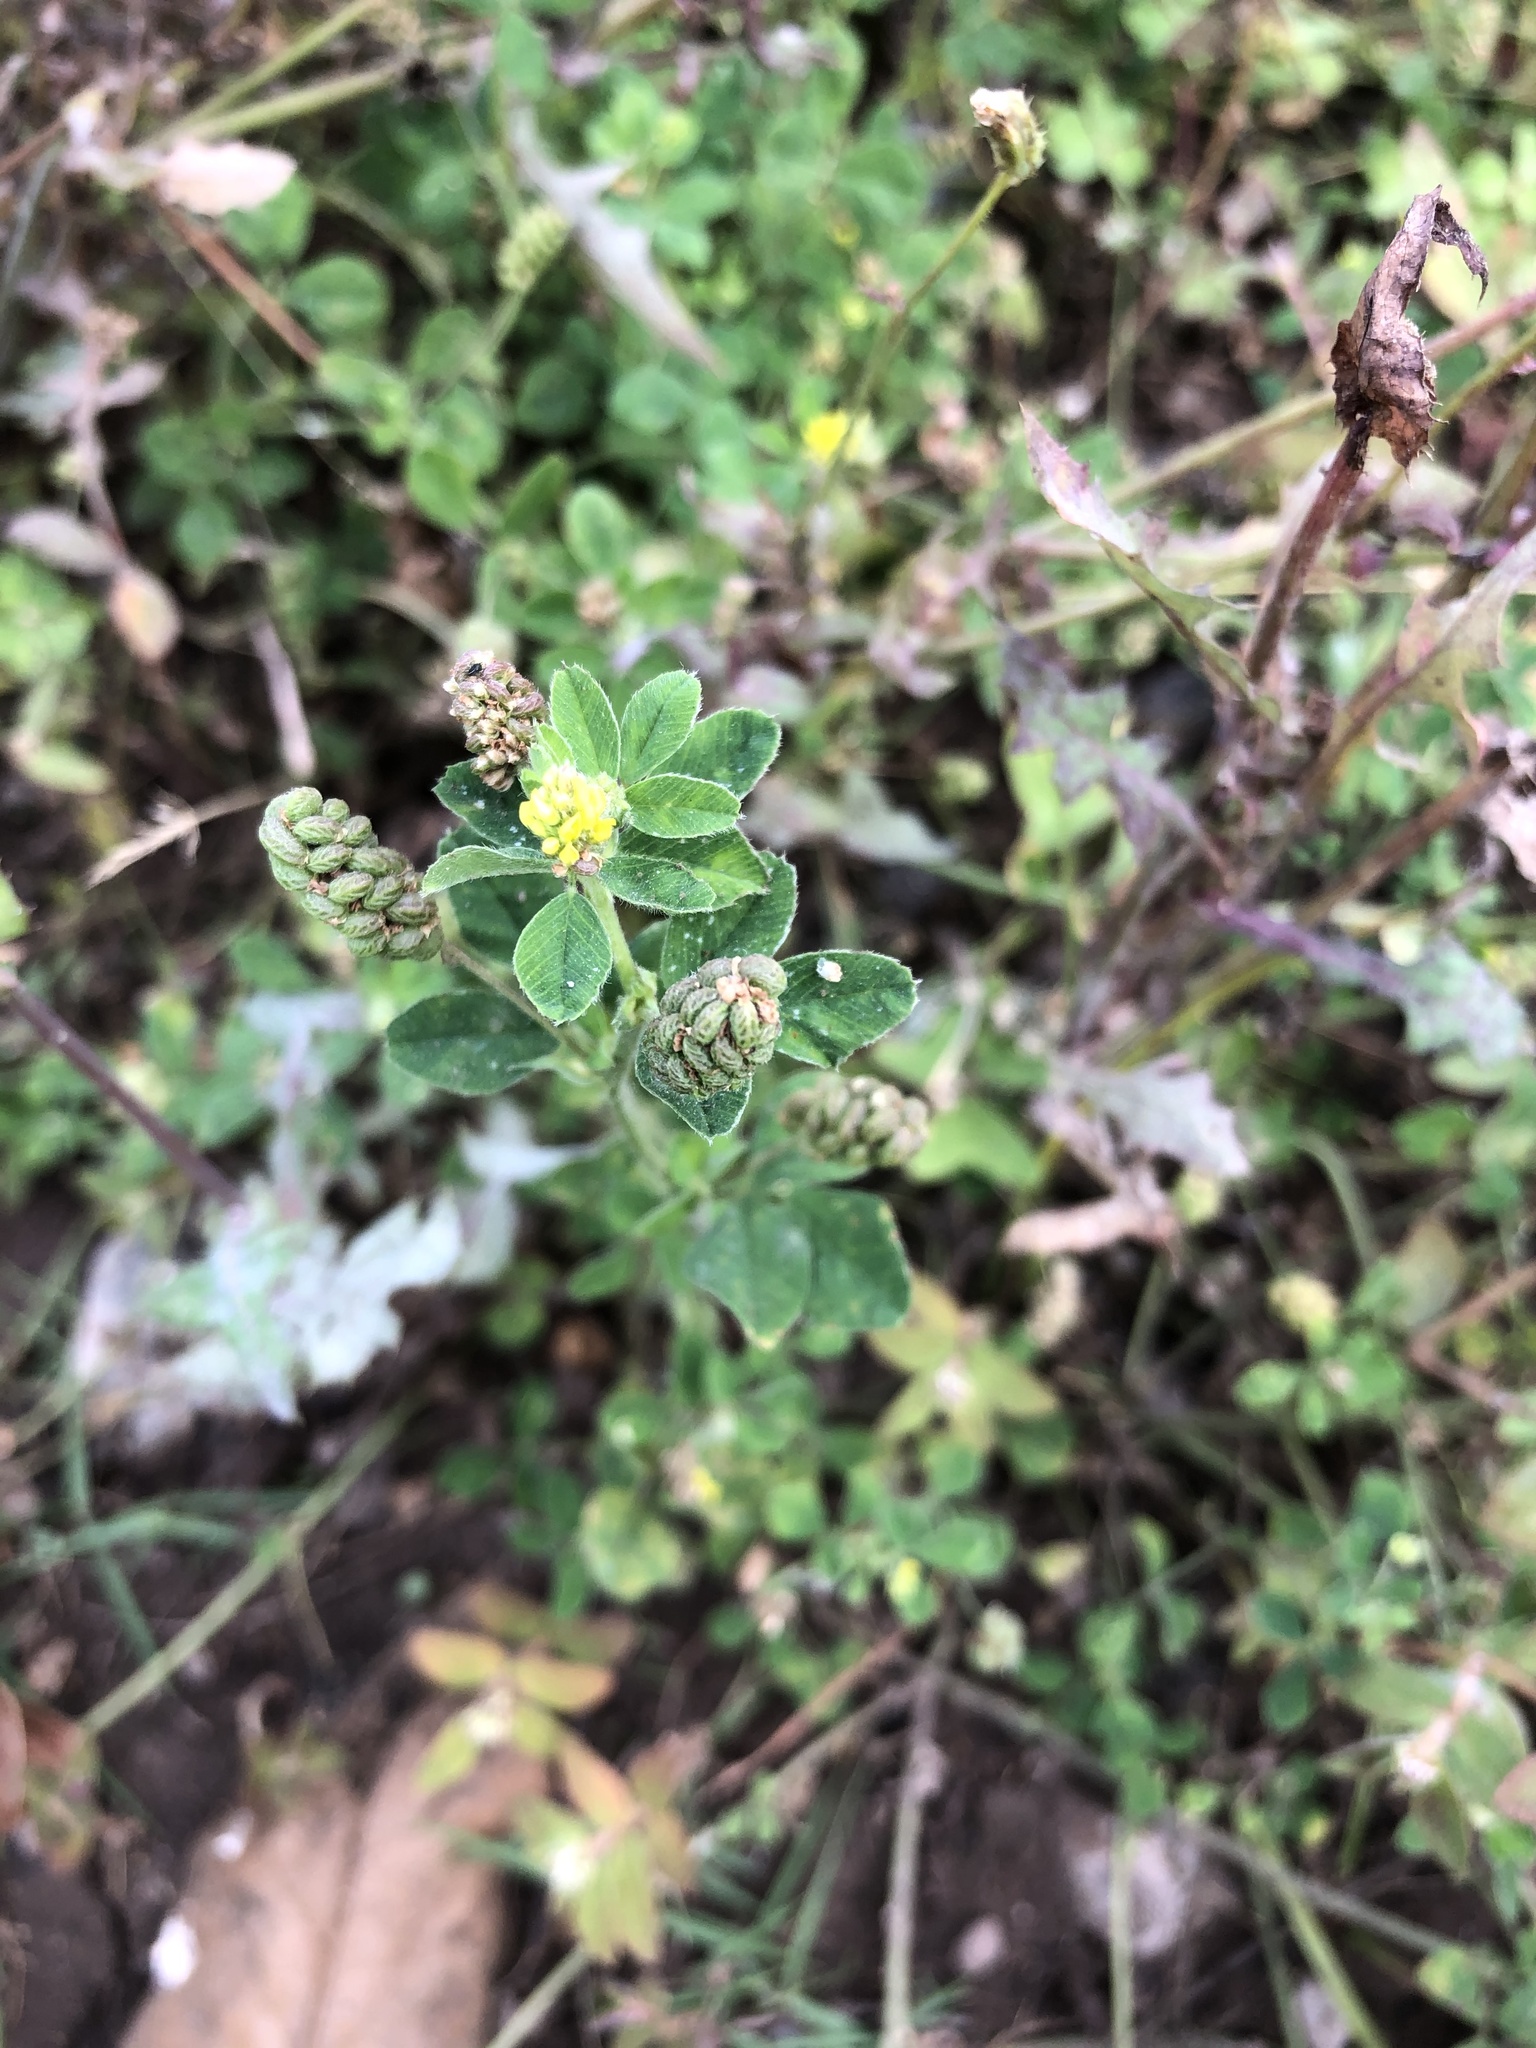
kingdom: Plantae
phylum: Tracheophyta
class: Magnoliopsida
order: Fabales
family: Fabaceae
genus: Medicago
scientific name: Medicago lupulina
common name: Black medick
